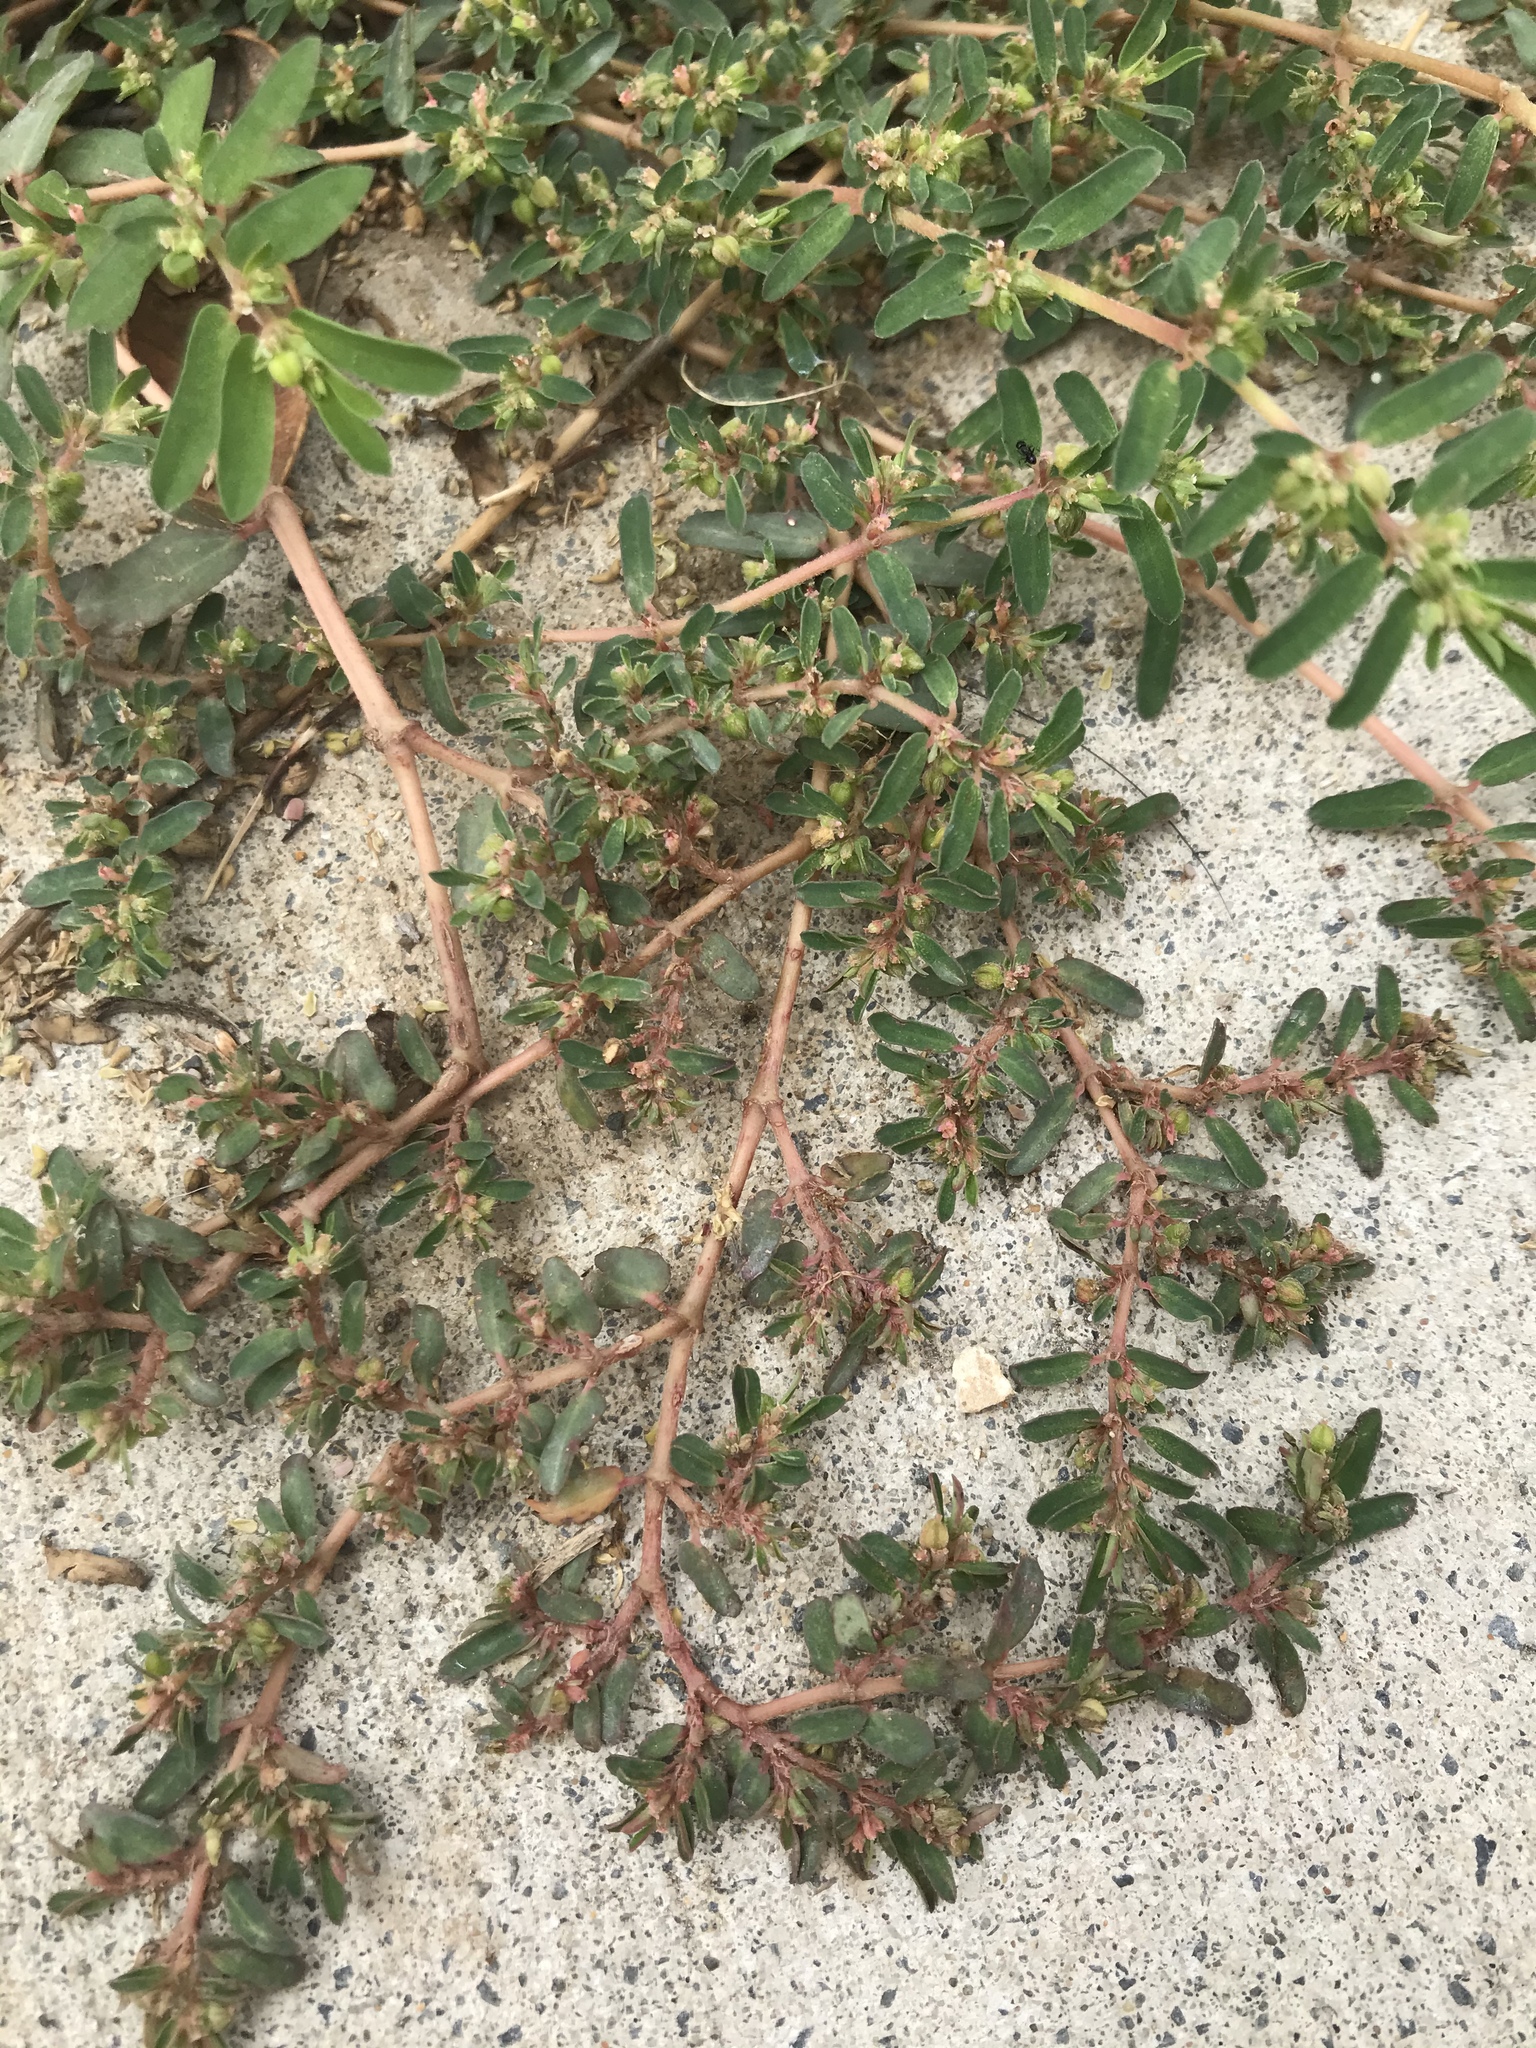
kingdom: Plantae
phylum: Tracheophyta
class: Magnoliopsida
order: Malpighiales
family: Euphorbiaceae
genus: Euphorbia
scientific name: Euphorbia maculata
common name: Spotted spurge
